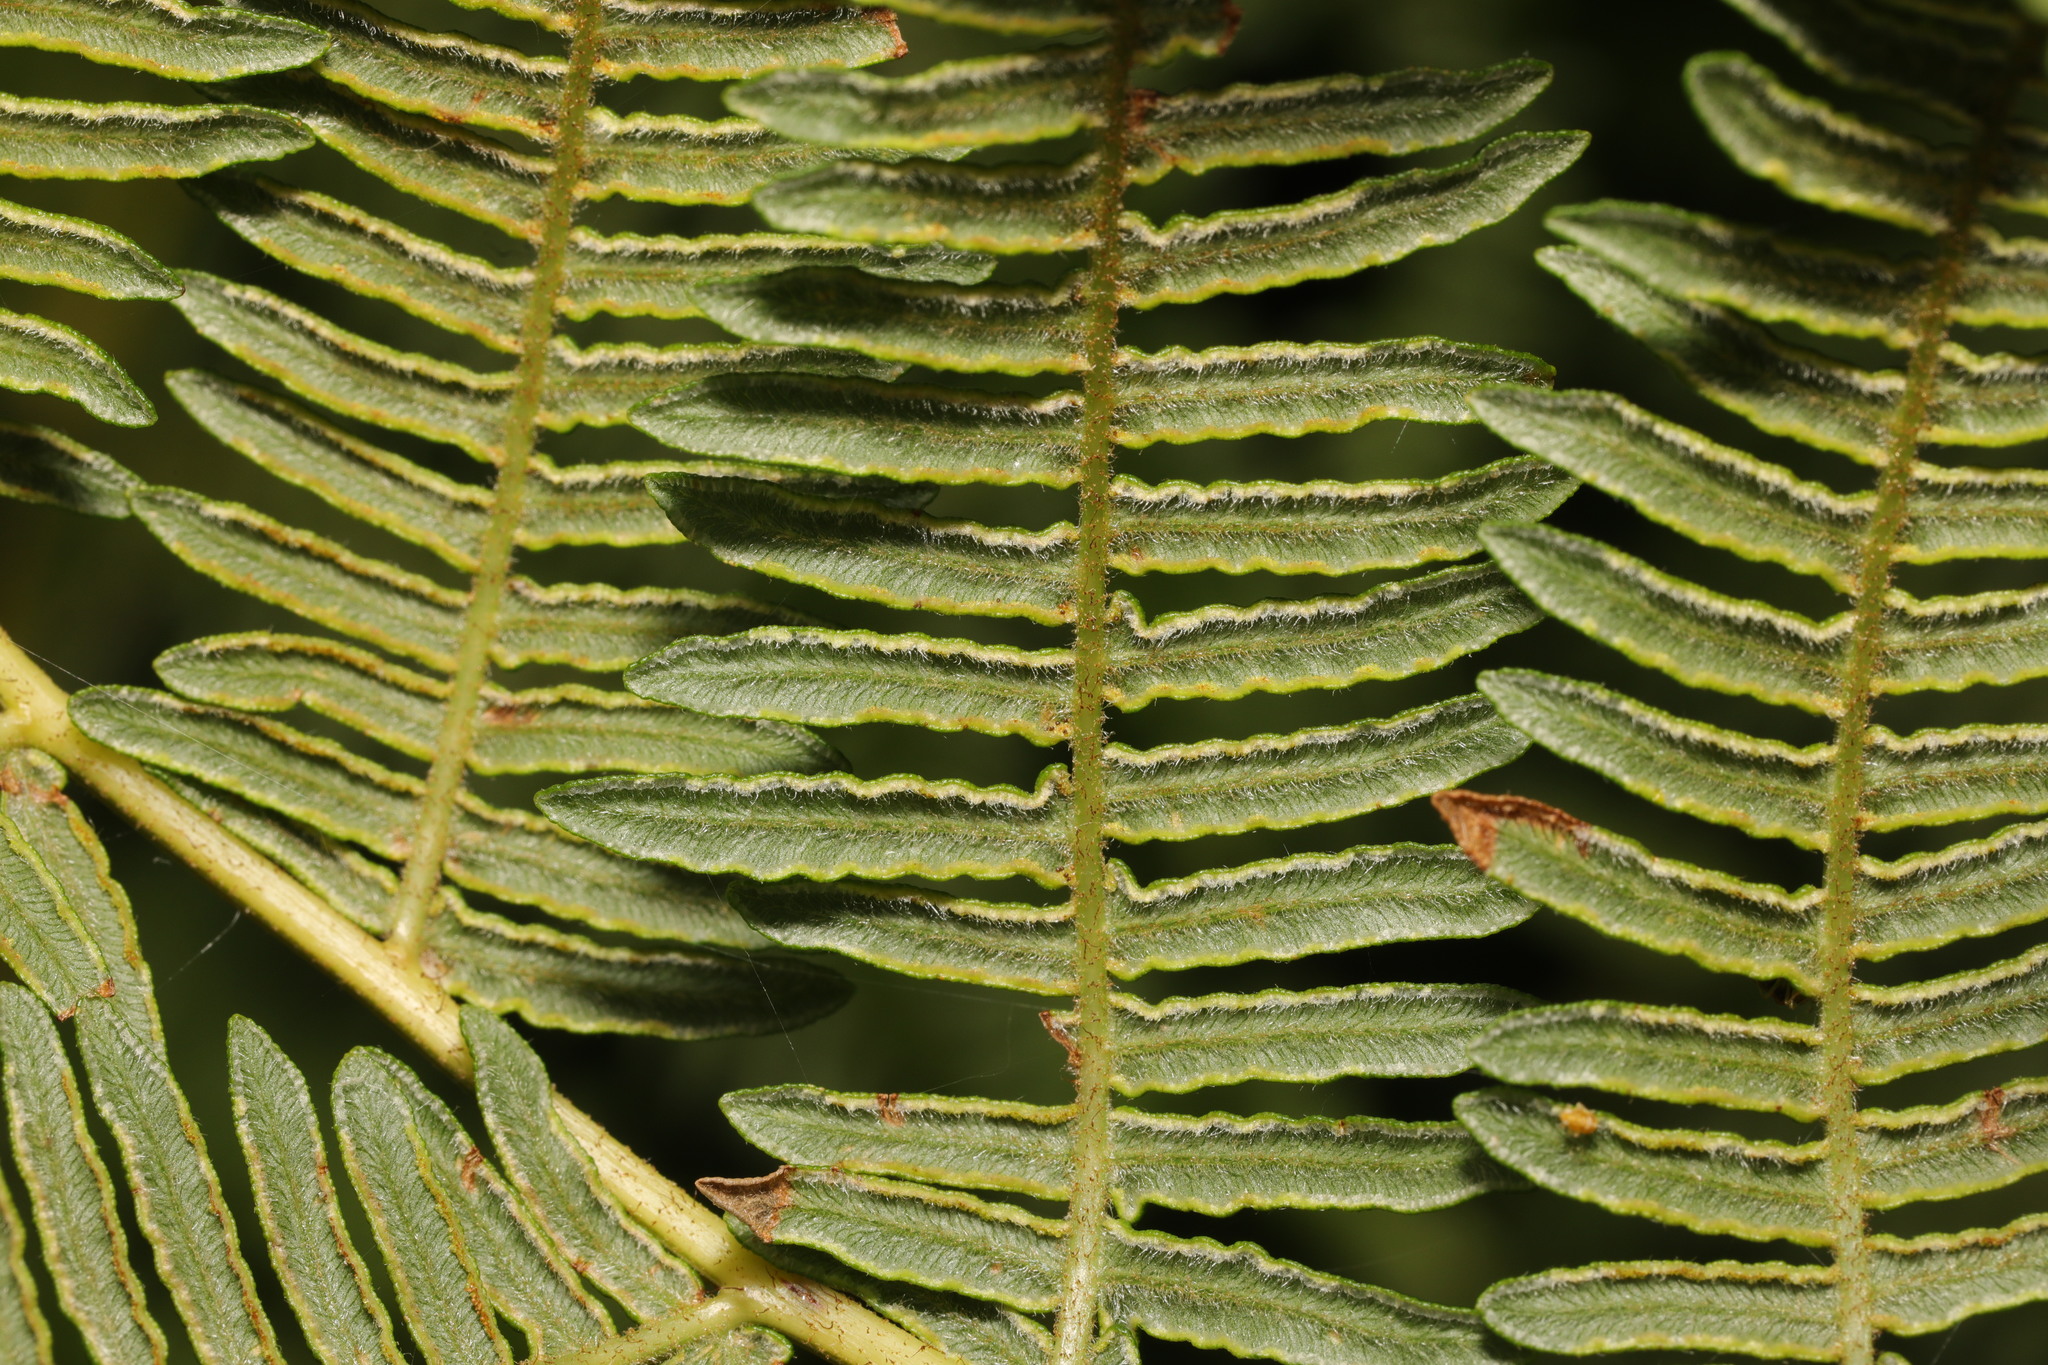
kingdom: Plantae
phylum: Tracheophyta
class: Polypodiopsida
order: Polypodiales
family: Dennstaedtiaceae
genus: Pteridium
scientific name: Pteridium aquilinum
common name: Bracken
